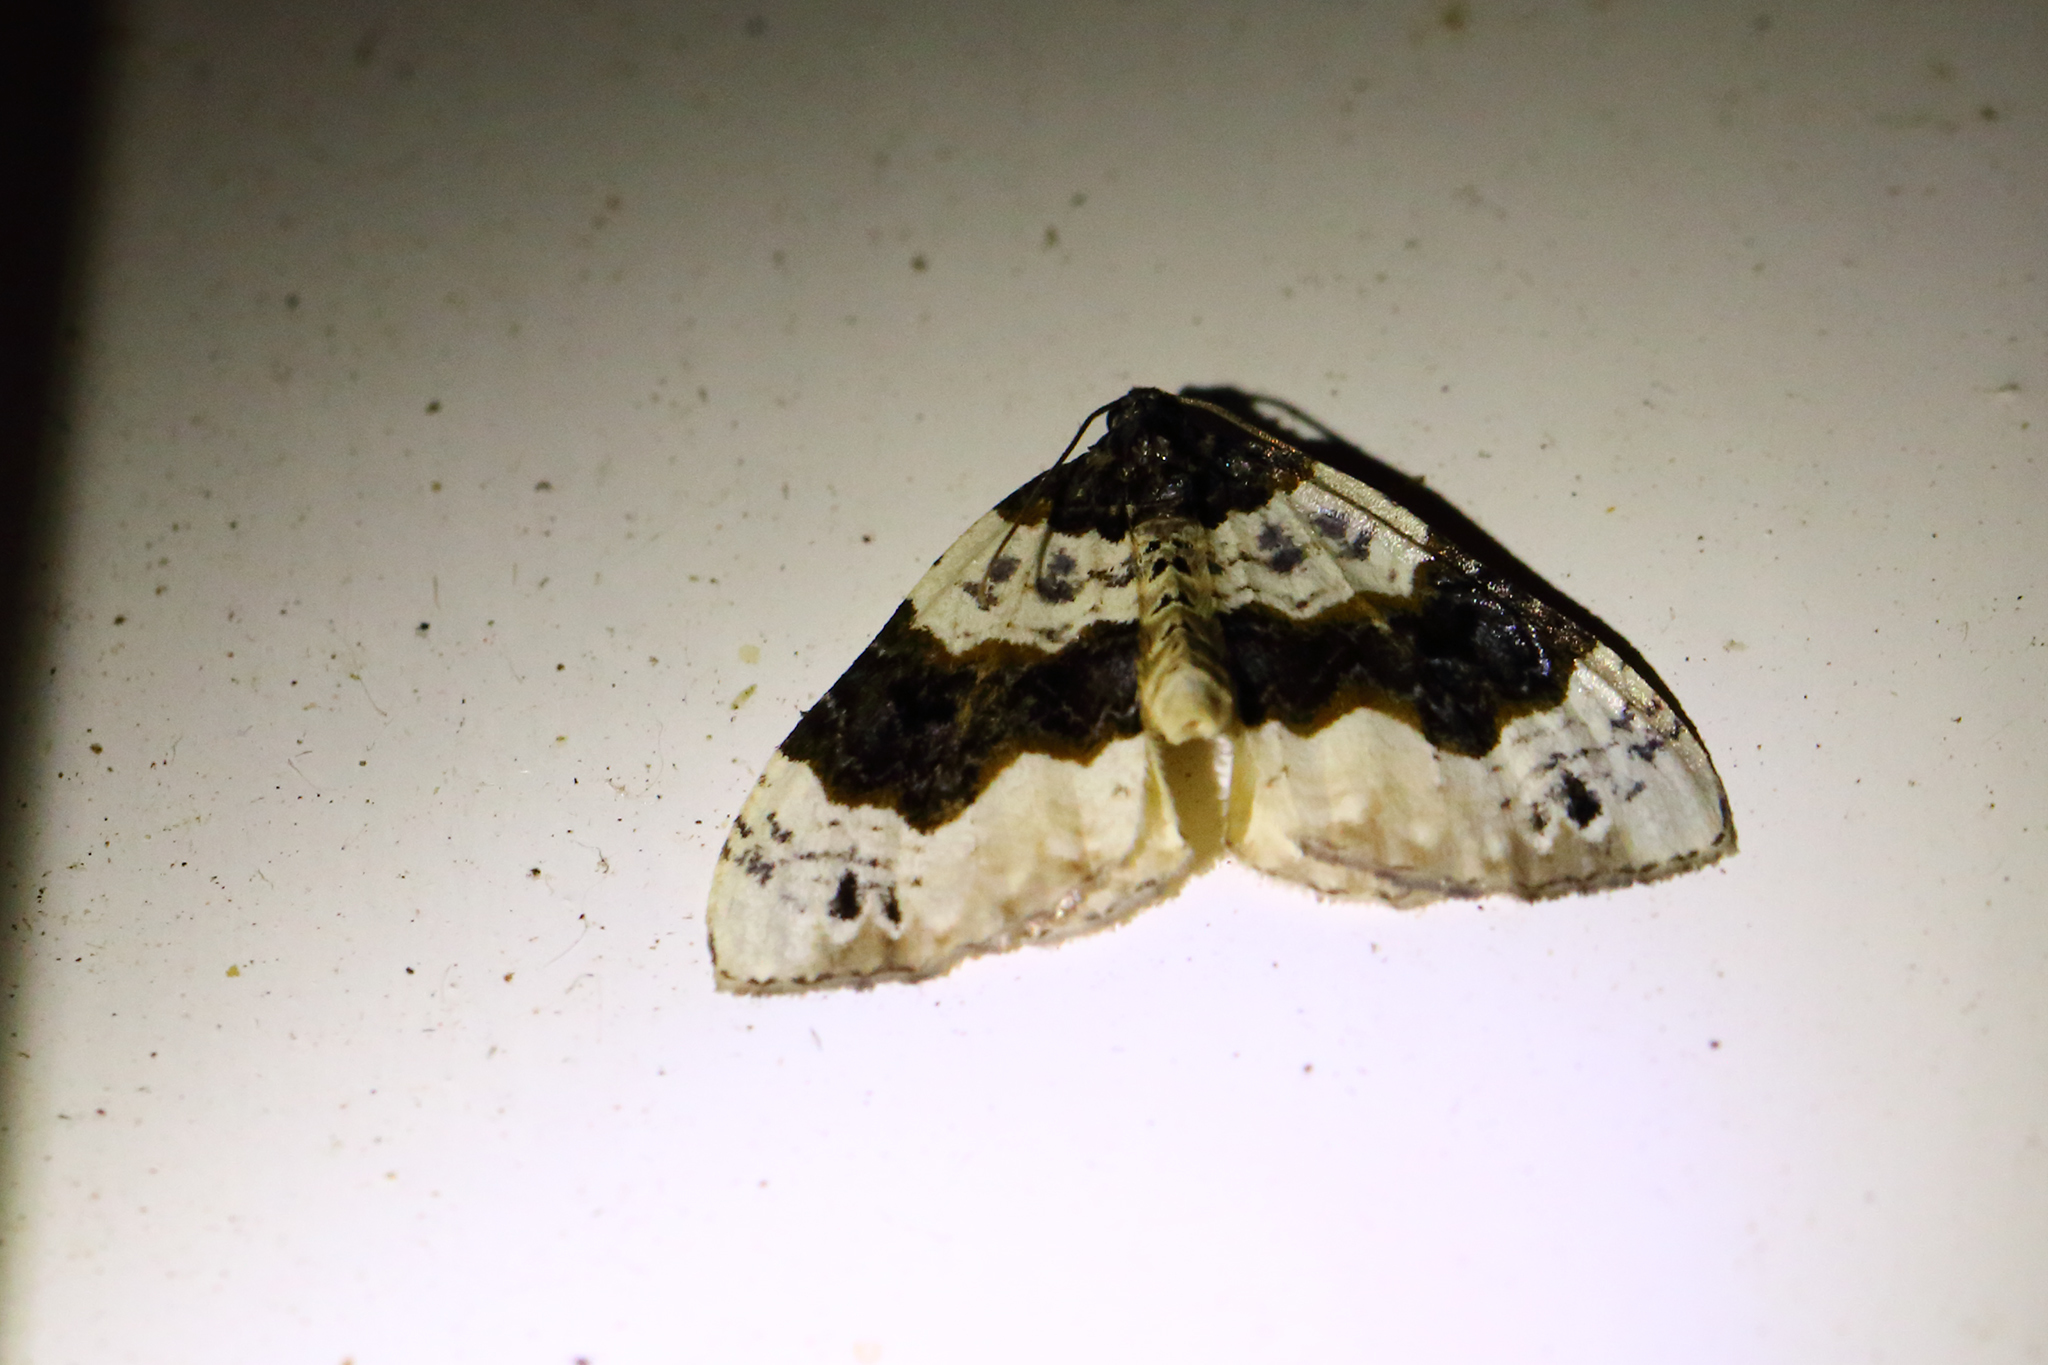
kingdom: Animalia
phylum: Arthropoda
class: Insecta
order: Lepidoptera
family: Geometridae
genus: Cosmorhoe
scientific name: Cosmorhoe ocellata
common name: Purple bar
